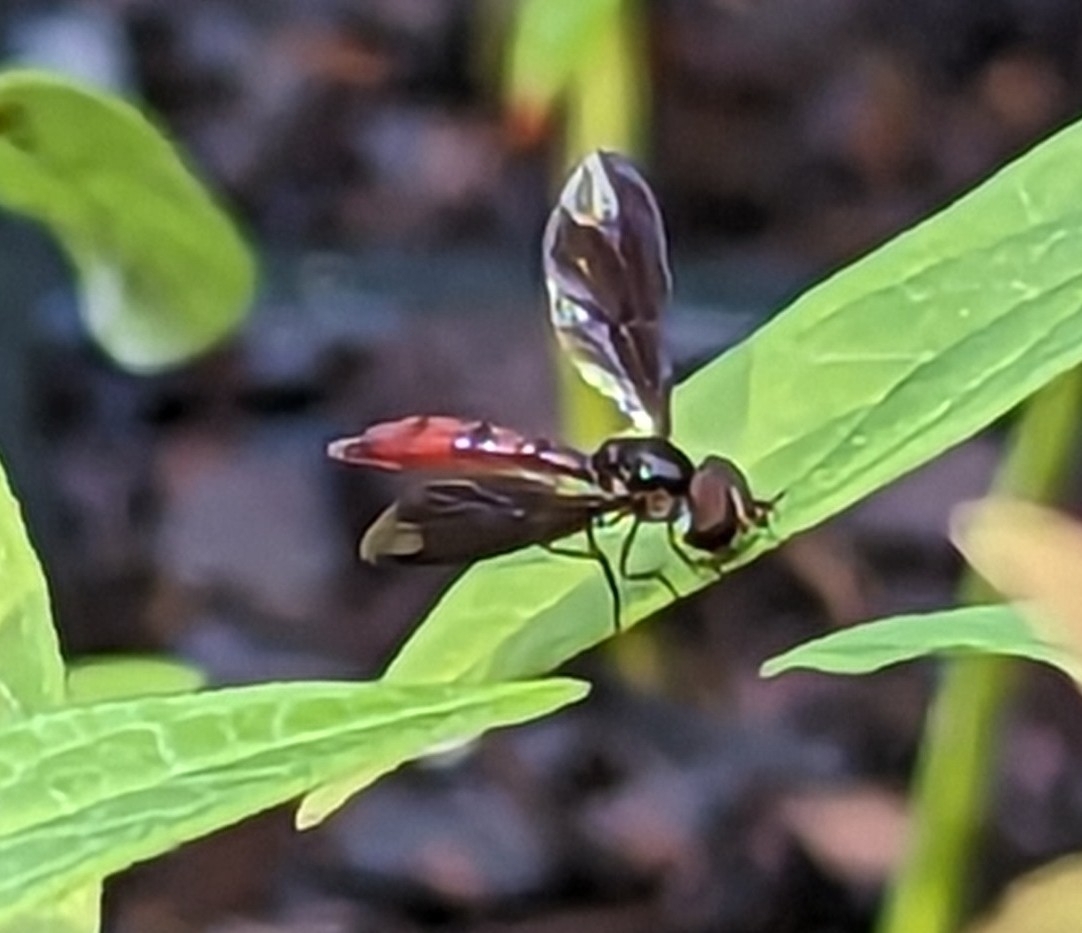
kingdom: Animalia
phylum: Arthropoda
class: Insecta
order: Diptera
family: Syrphidae
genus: Ocyptamus
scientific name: Ocyptamus fuscipennis
